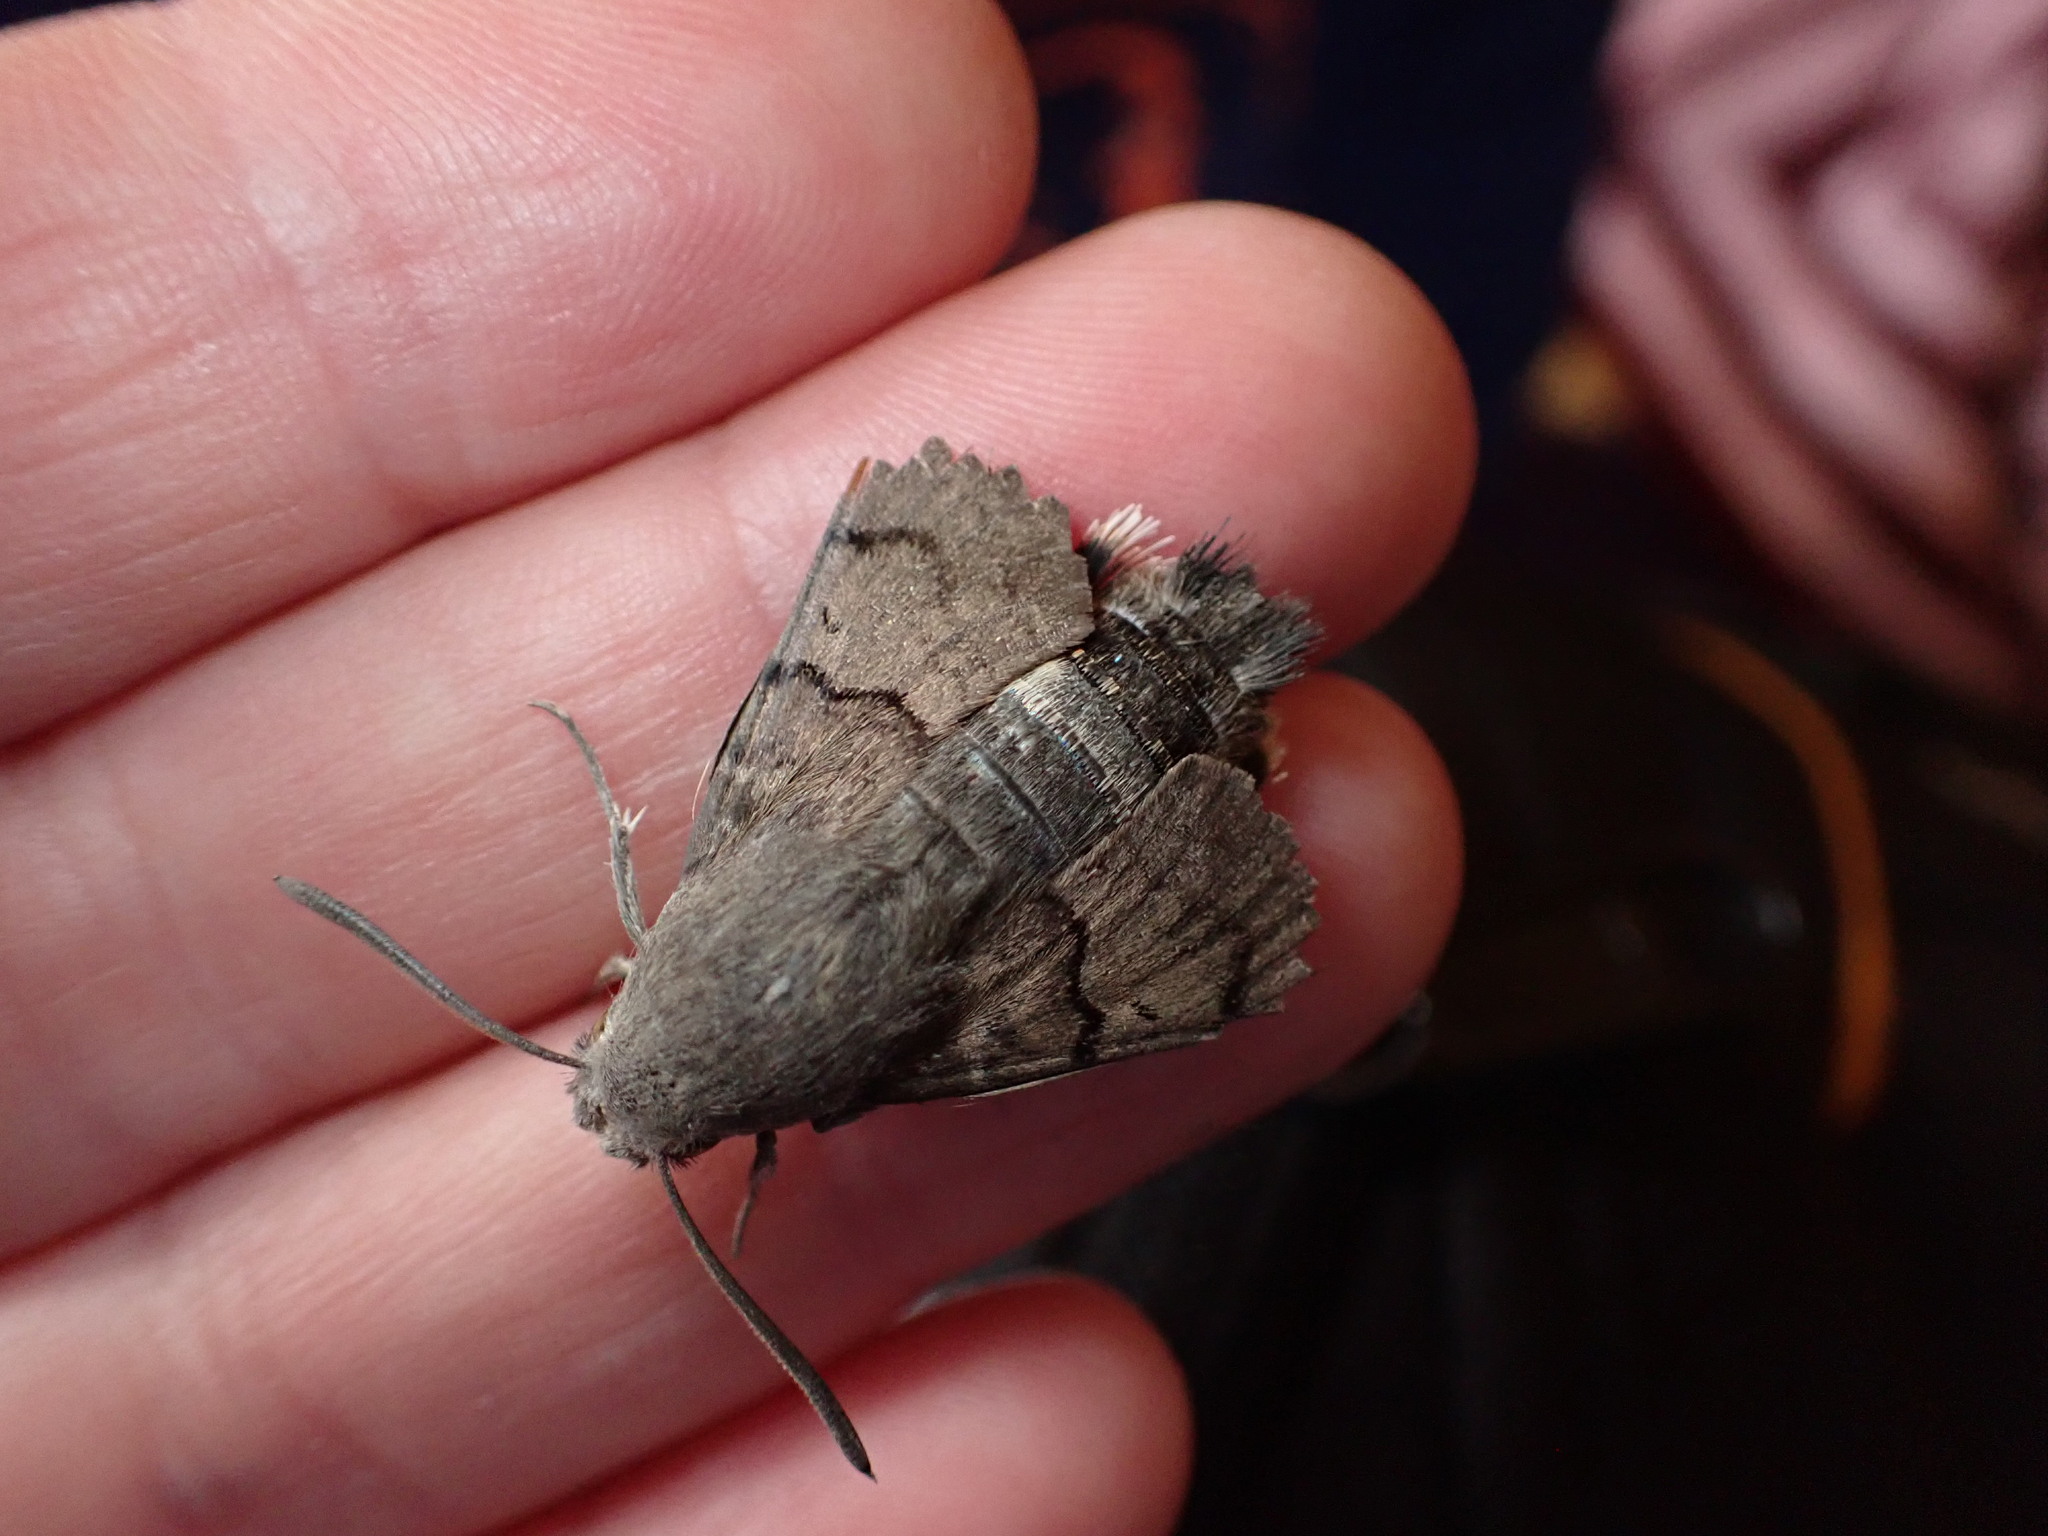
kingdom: Animalia
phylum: Arthropoda
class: Insecta
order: Lepidoptera
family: Sphingidae
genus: Macroglossum
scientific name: Macroglossum stellatarum
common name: Humming-bird hawk-moth
